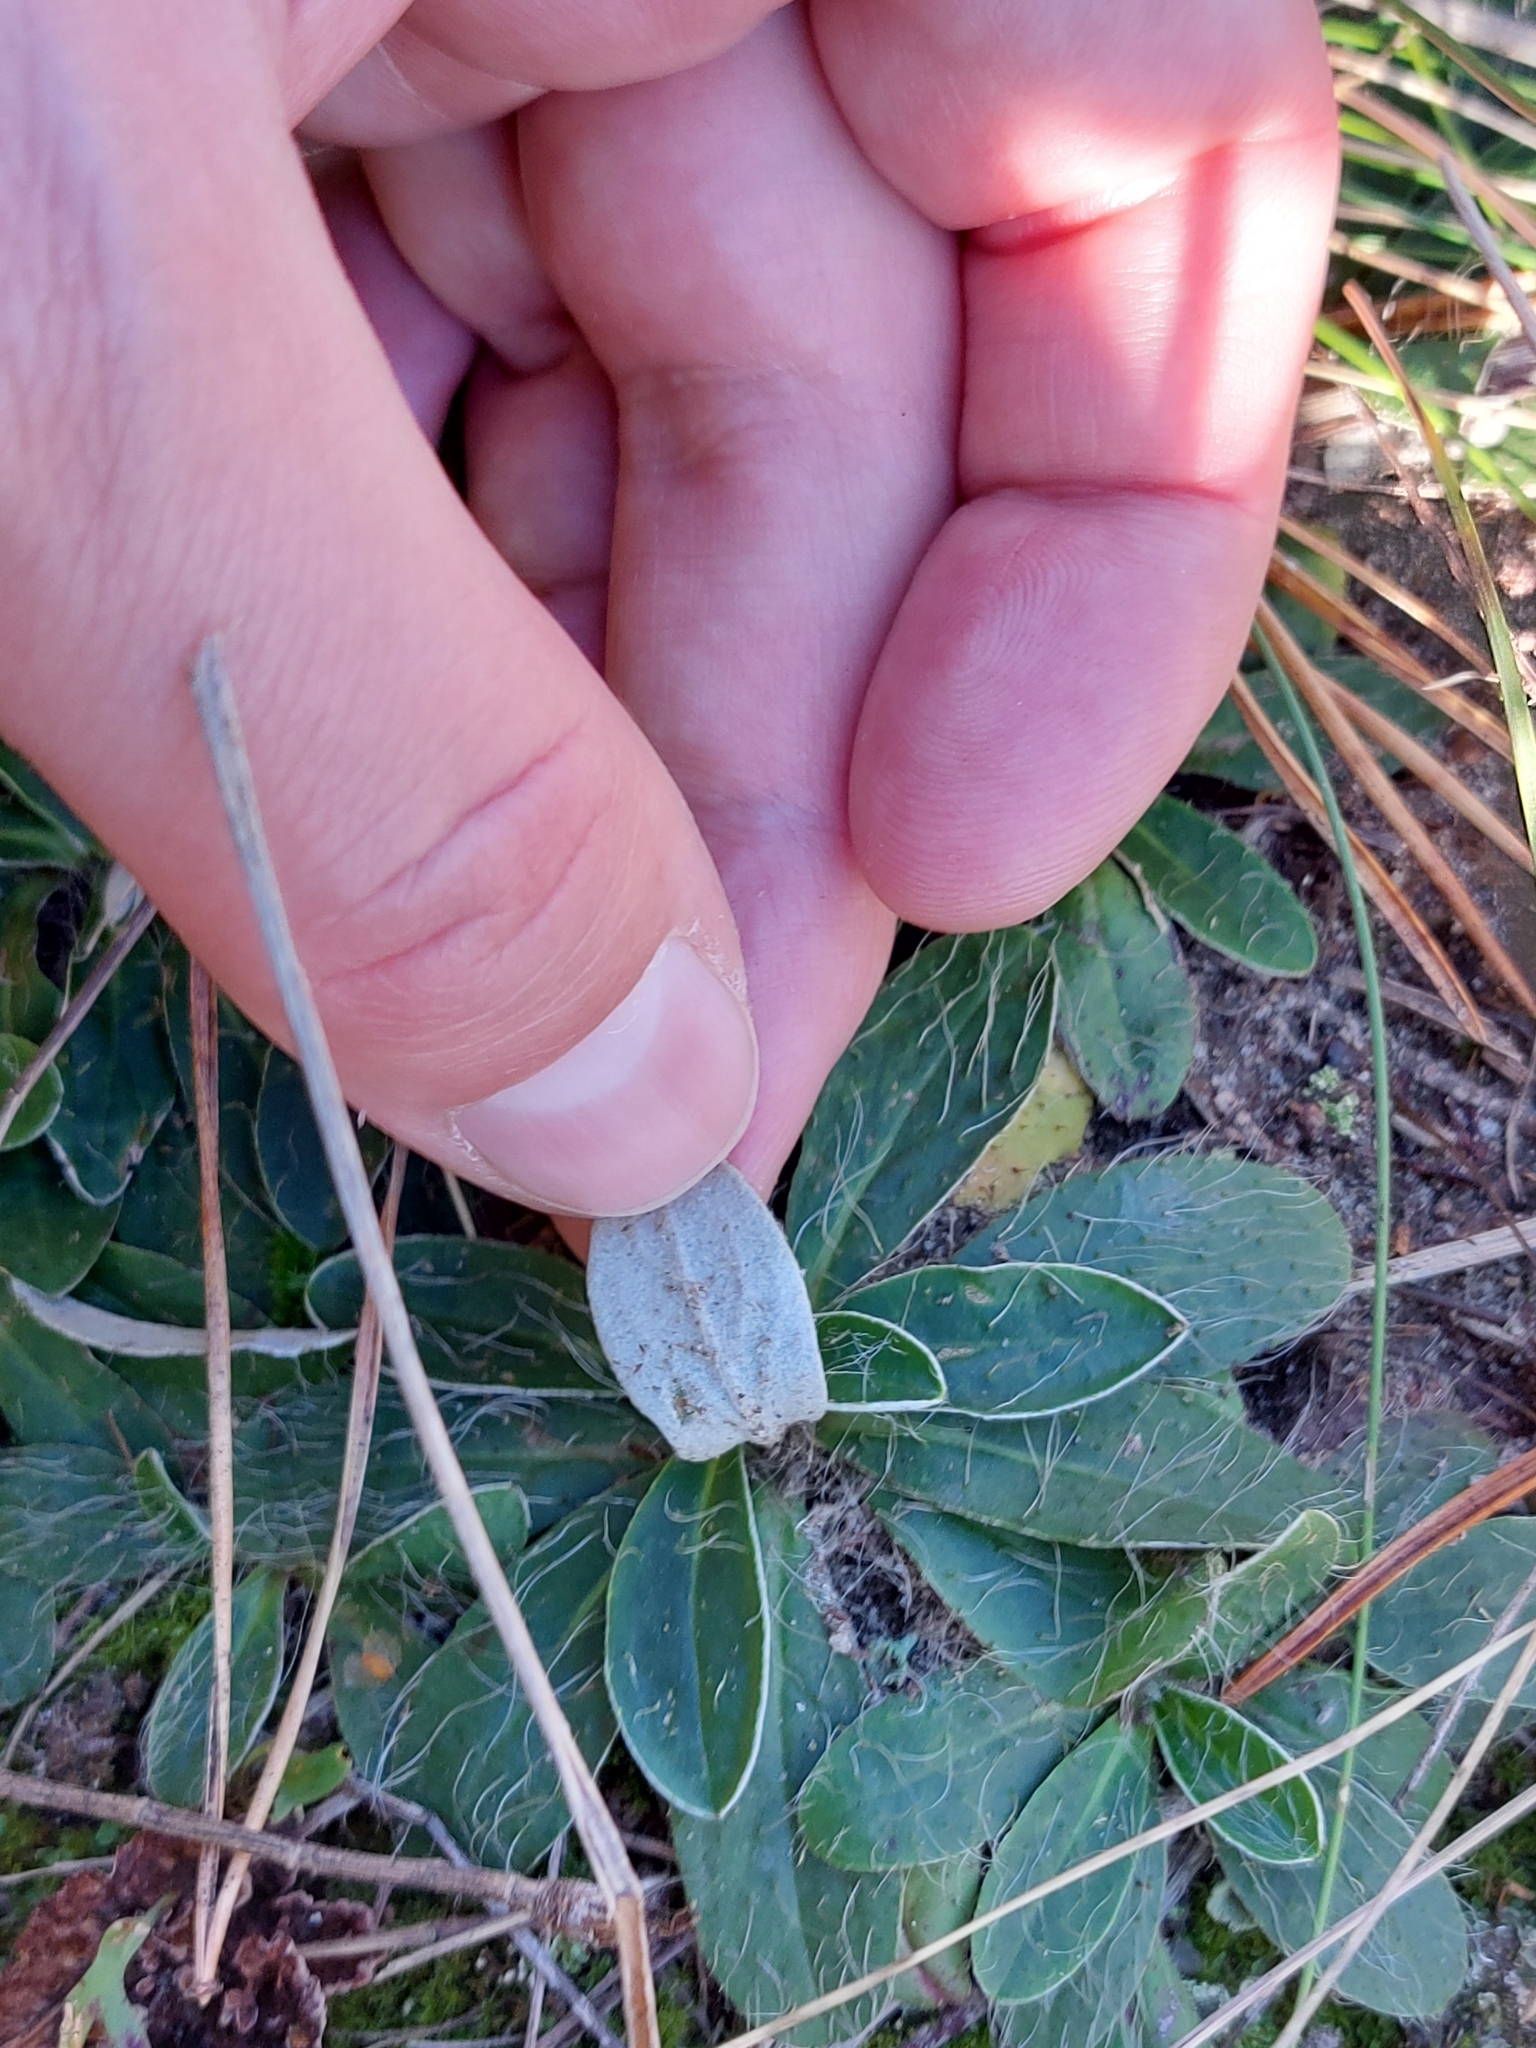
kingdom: Plantae
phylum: Tracheophyta
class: Magnoliopsida
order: Asterales
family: Asteraceae
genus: Pilosella
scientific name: Pilosella officinarum
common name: Mouse-ear hawkweed
